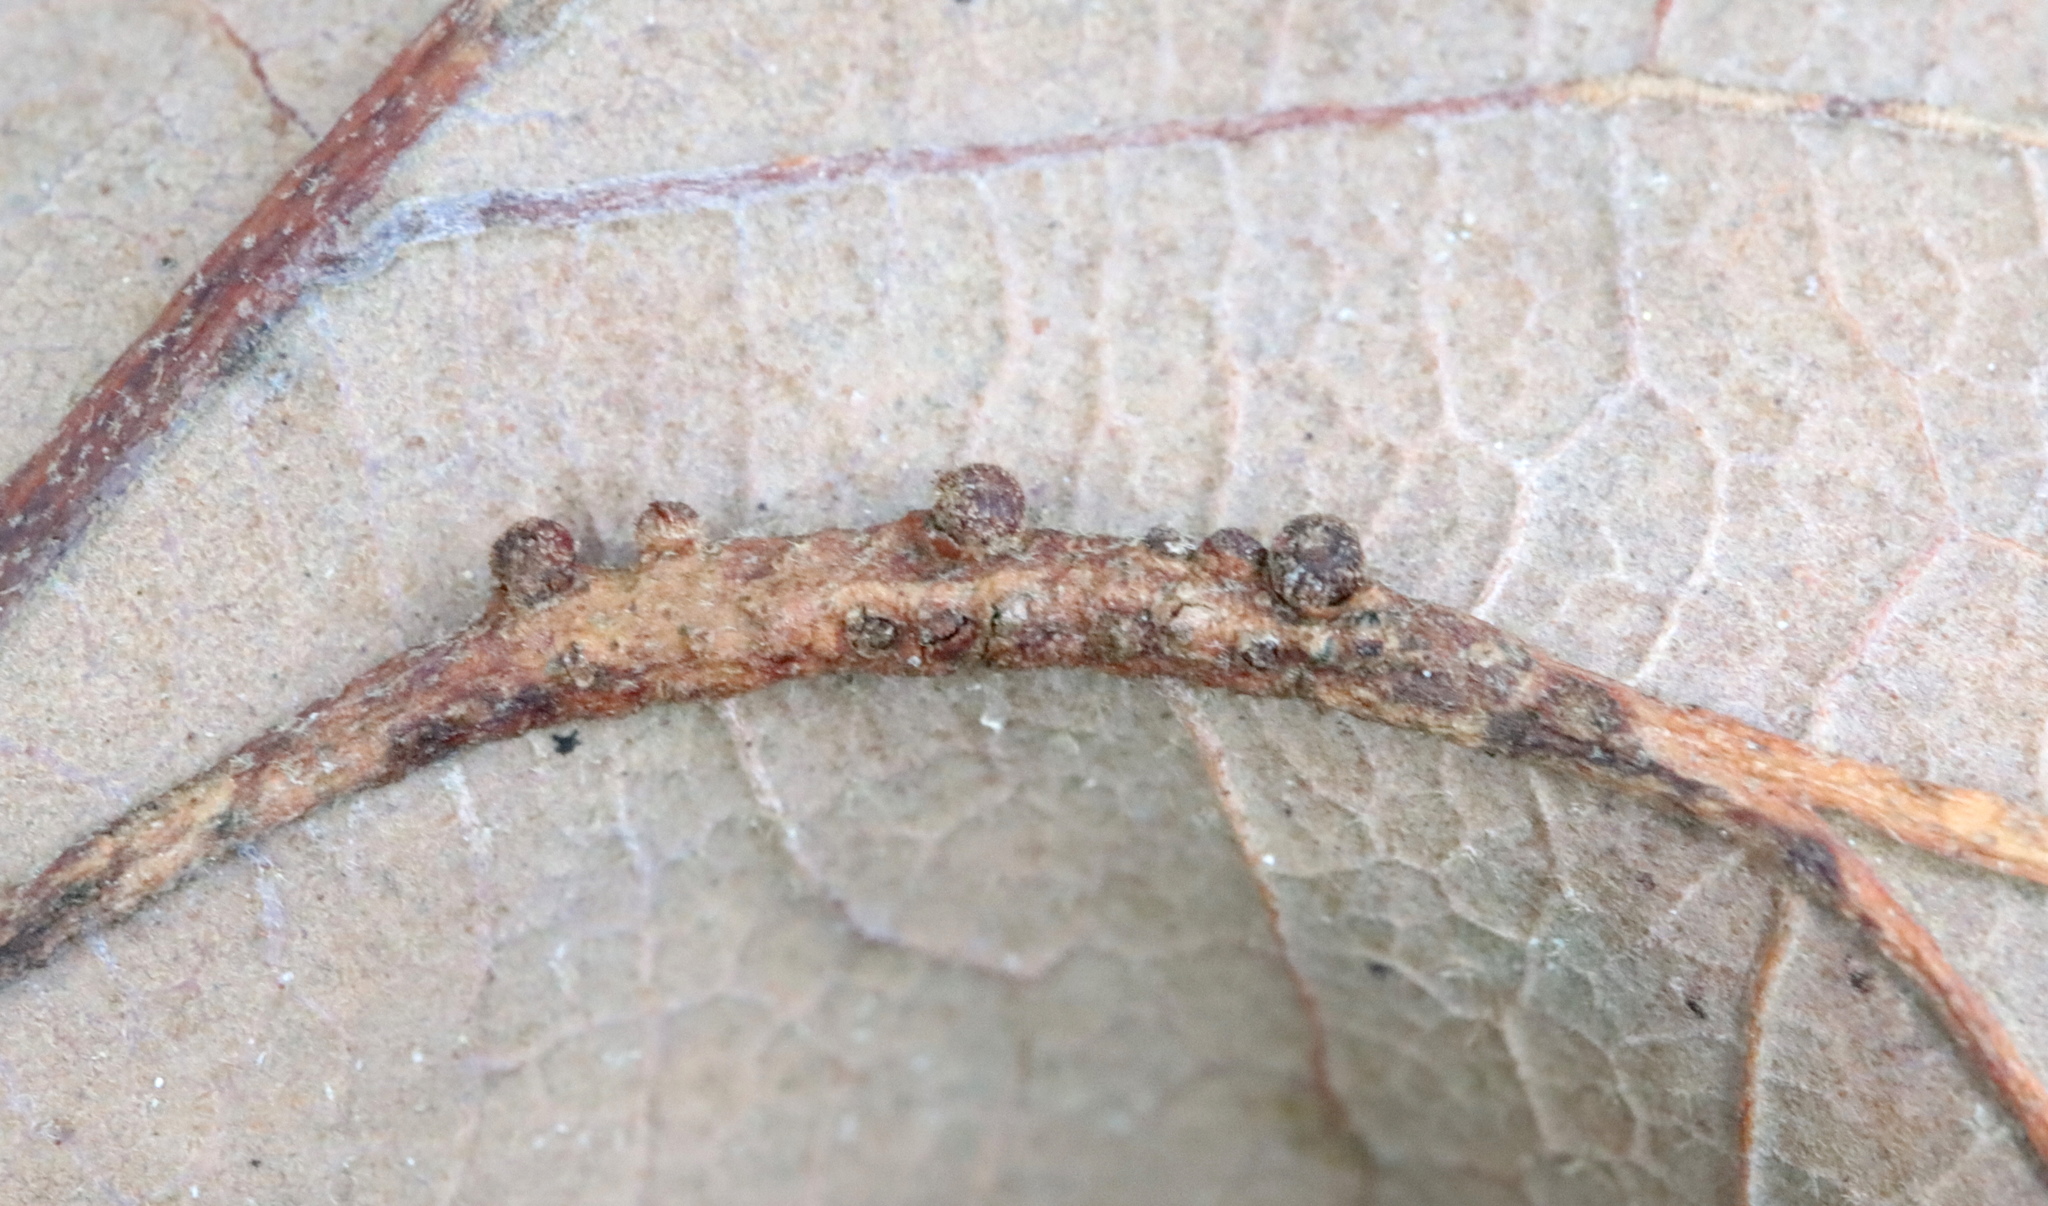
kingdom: Animalia
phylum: Arthropoda
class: Insecta
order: Hymenoptera
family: Cynipidae
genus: Andricus
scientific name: Andricus
